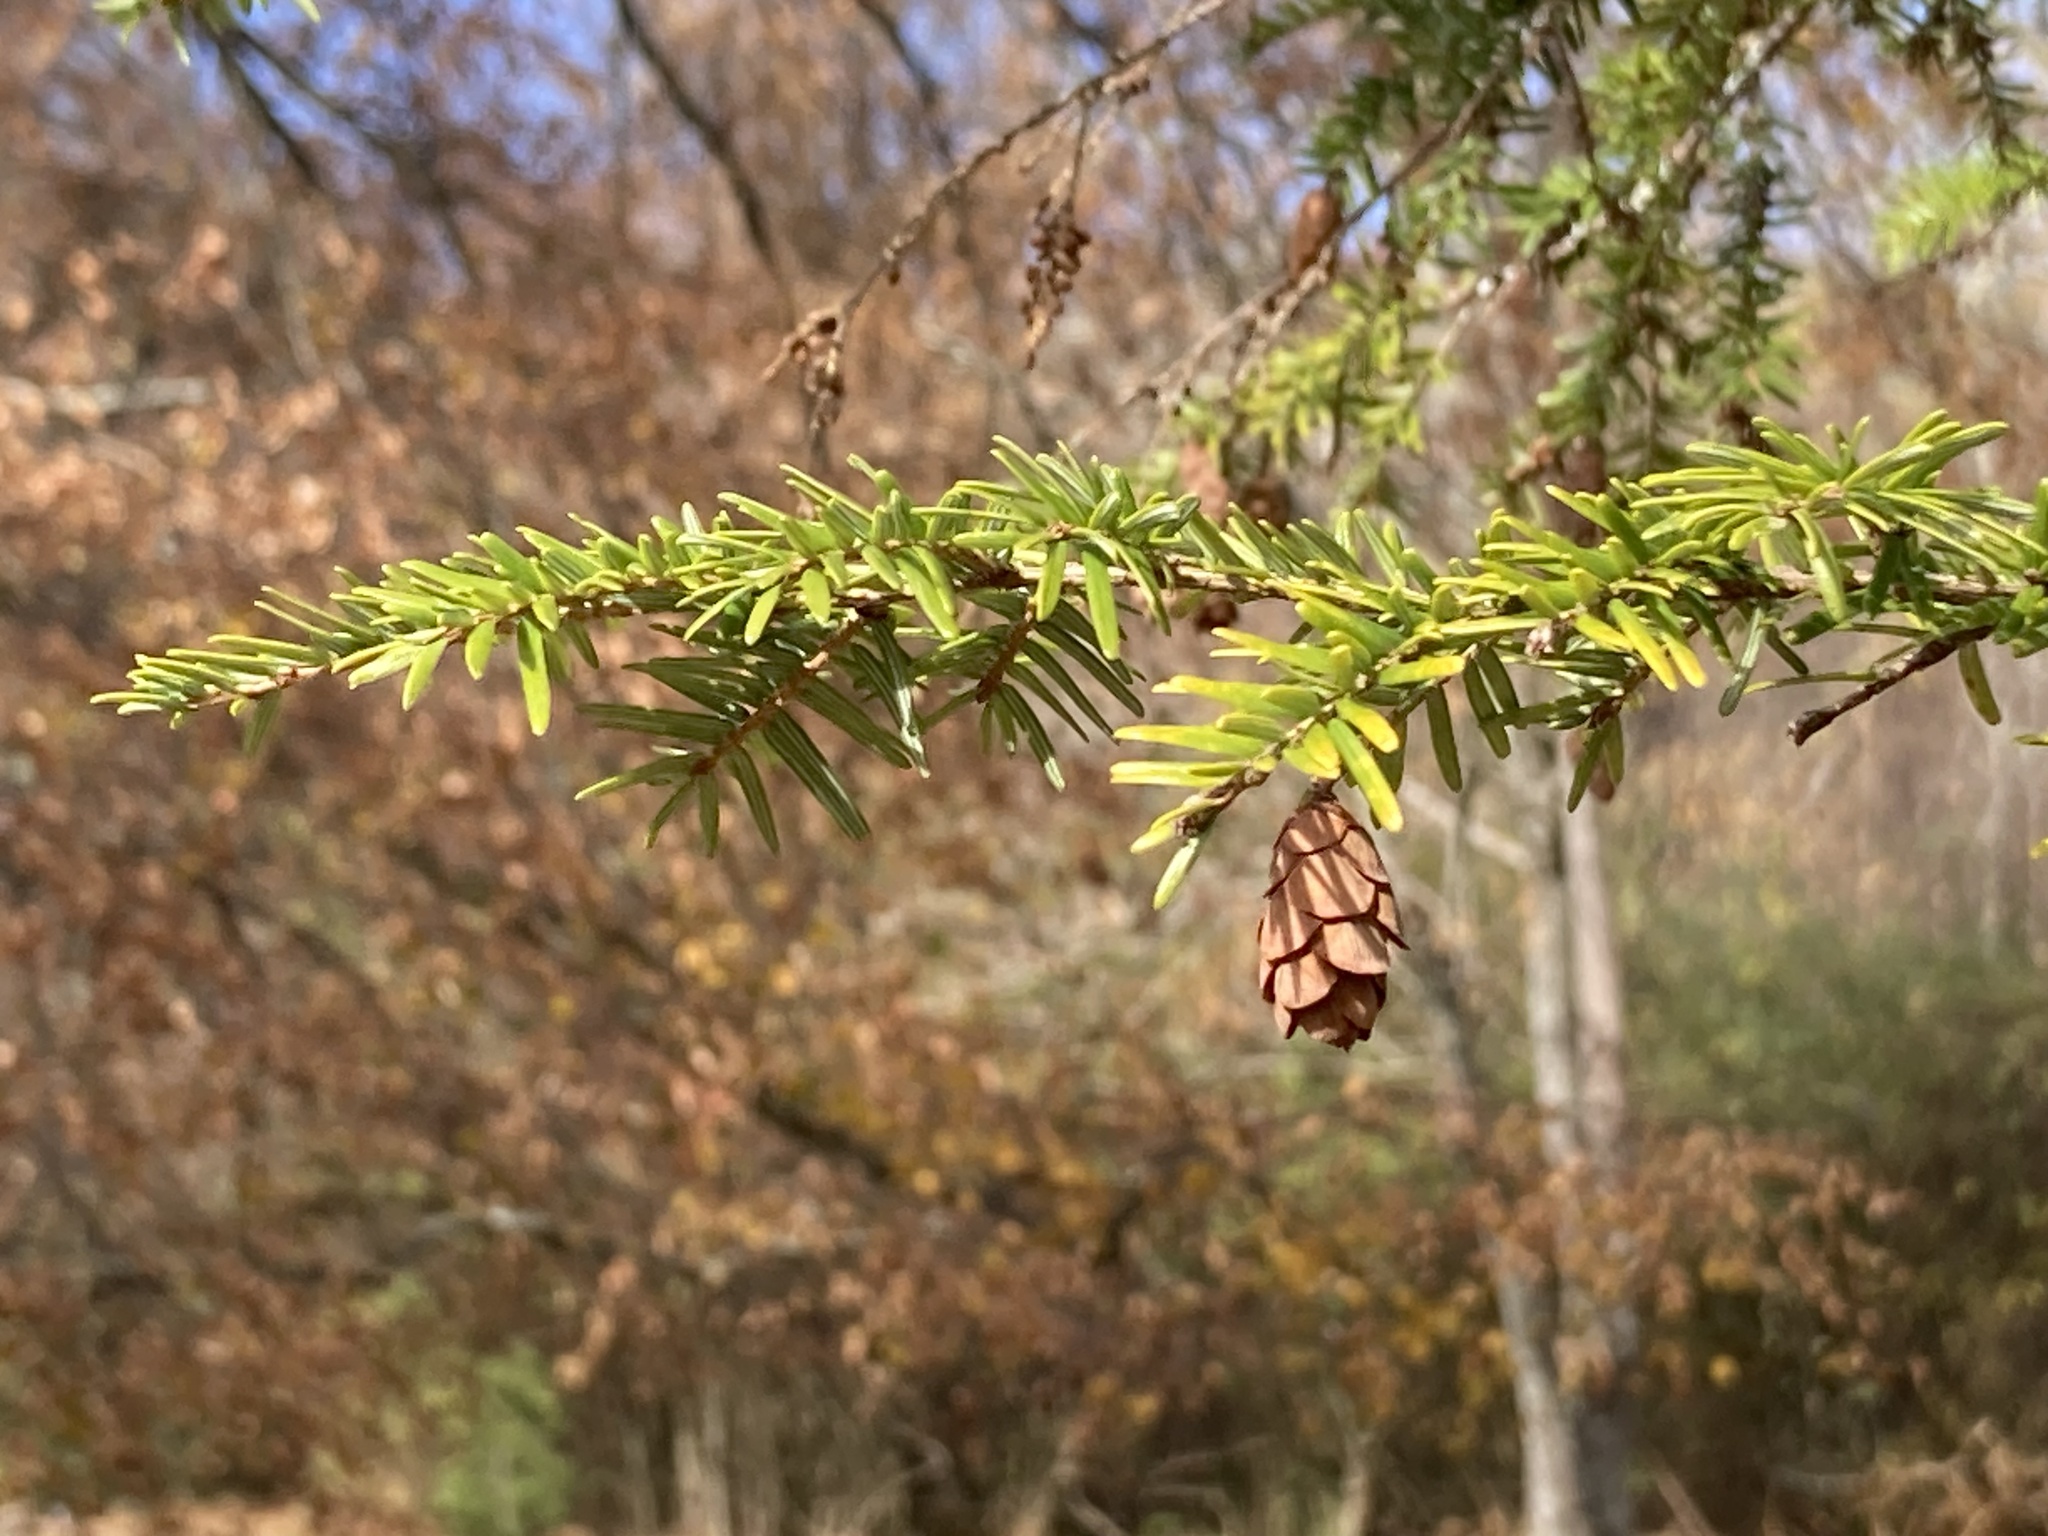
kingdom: Plantae
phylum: Tracheophyta
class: Pinopsida
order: Pinales
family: Pinaceae
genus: Tsuga
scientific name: Tsuga canadensis
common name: Eastern hemlock
